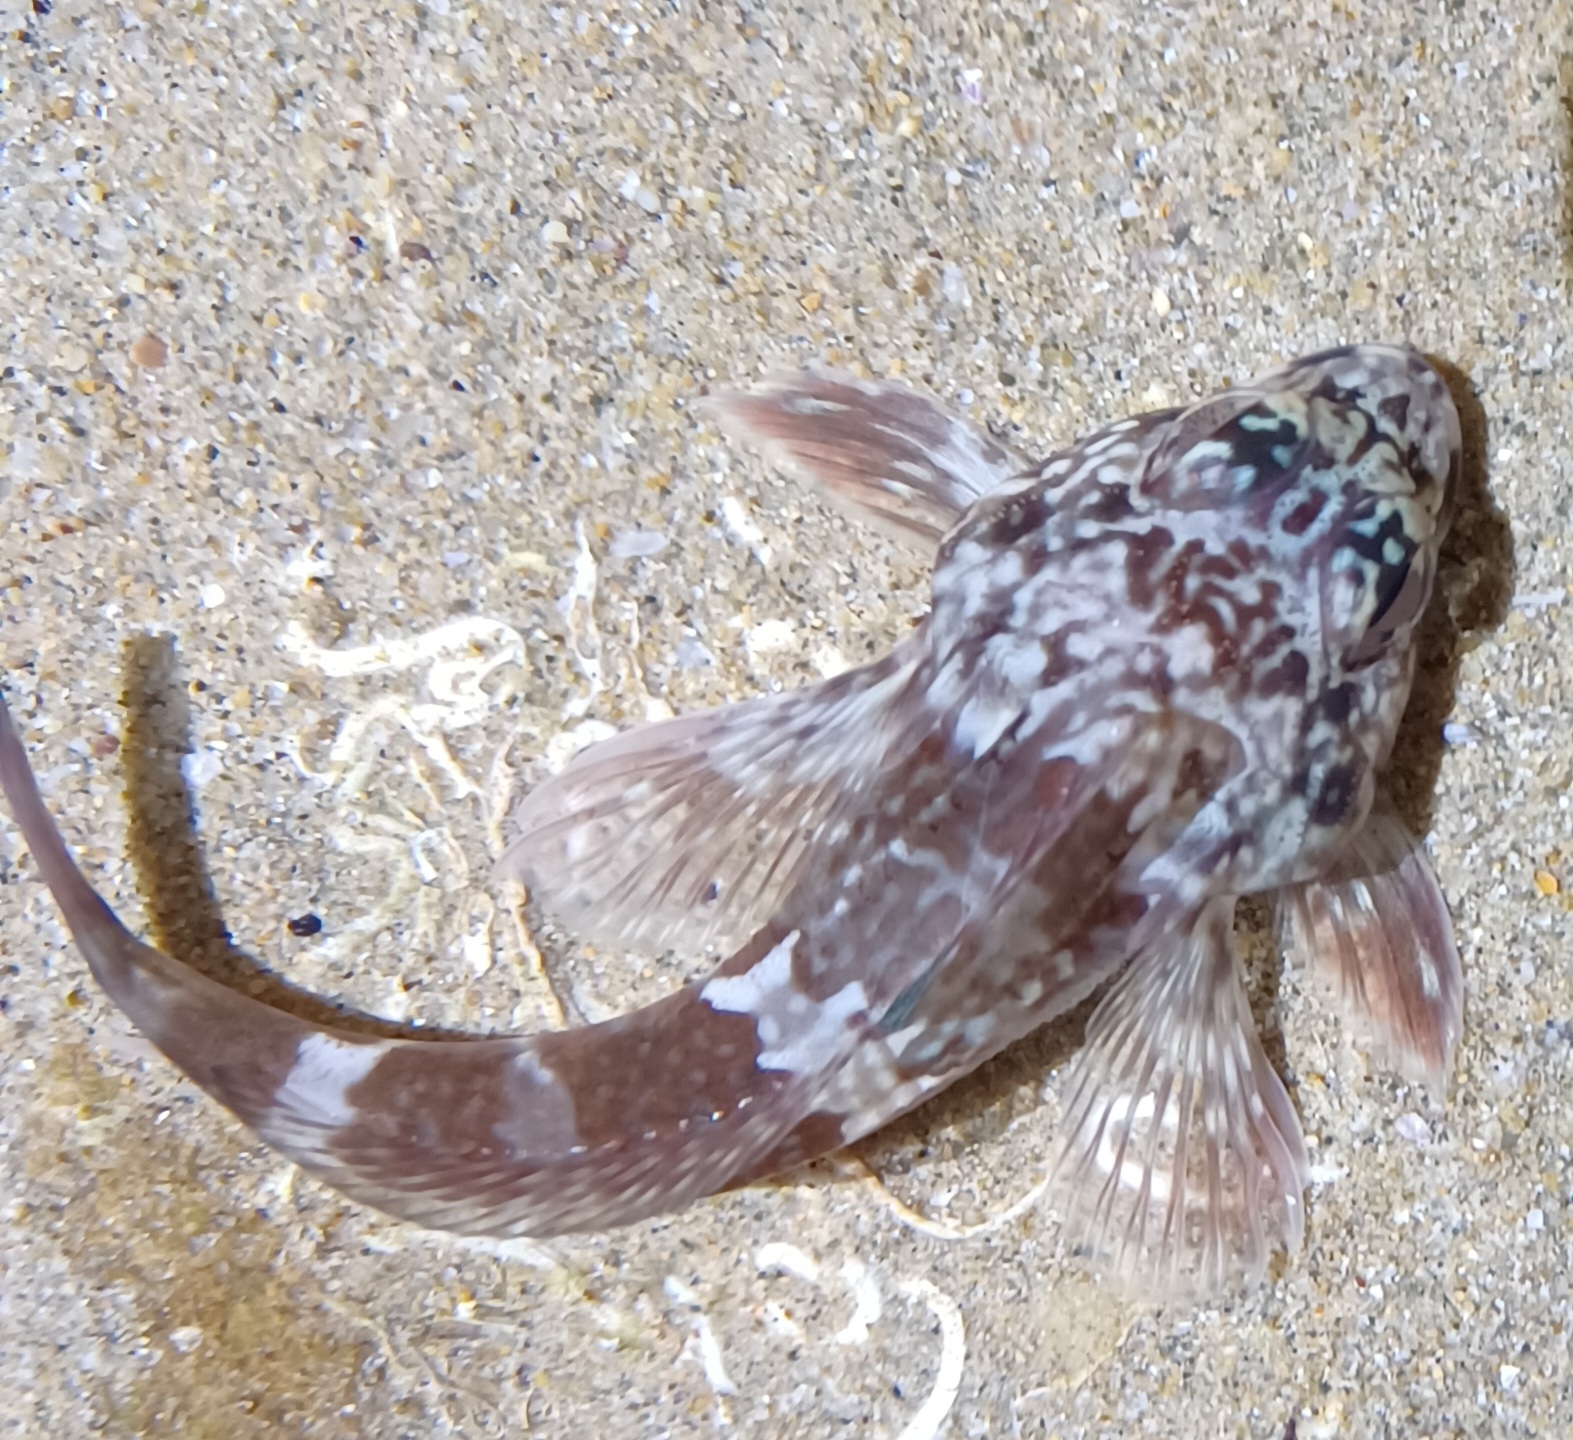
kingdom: Animalia
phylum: Chordata
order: Perciformes
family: Bovichtidae
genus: Bovichtus
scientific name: Bovichtus angustifrons
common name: Dragonet
